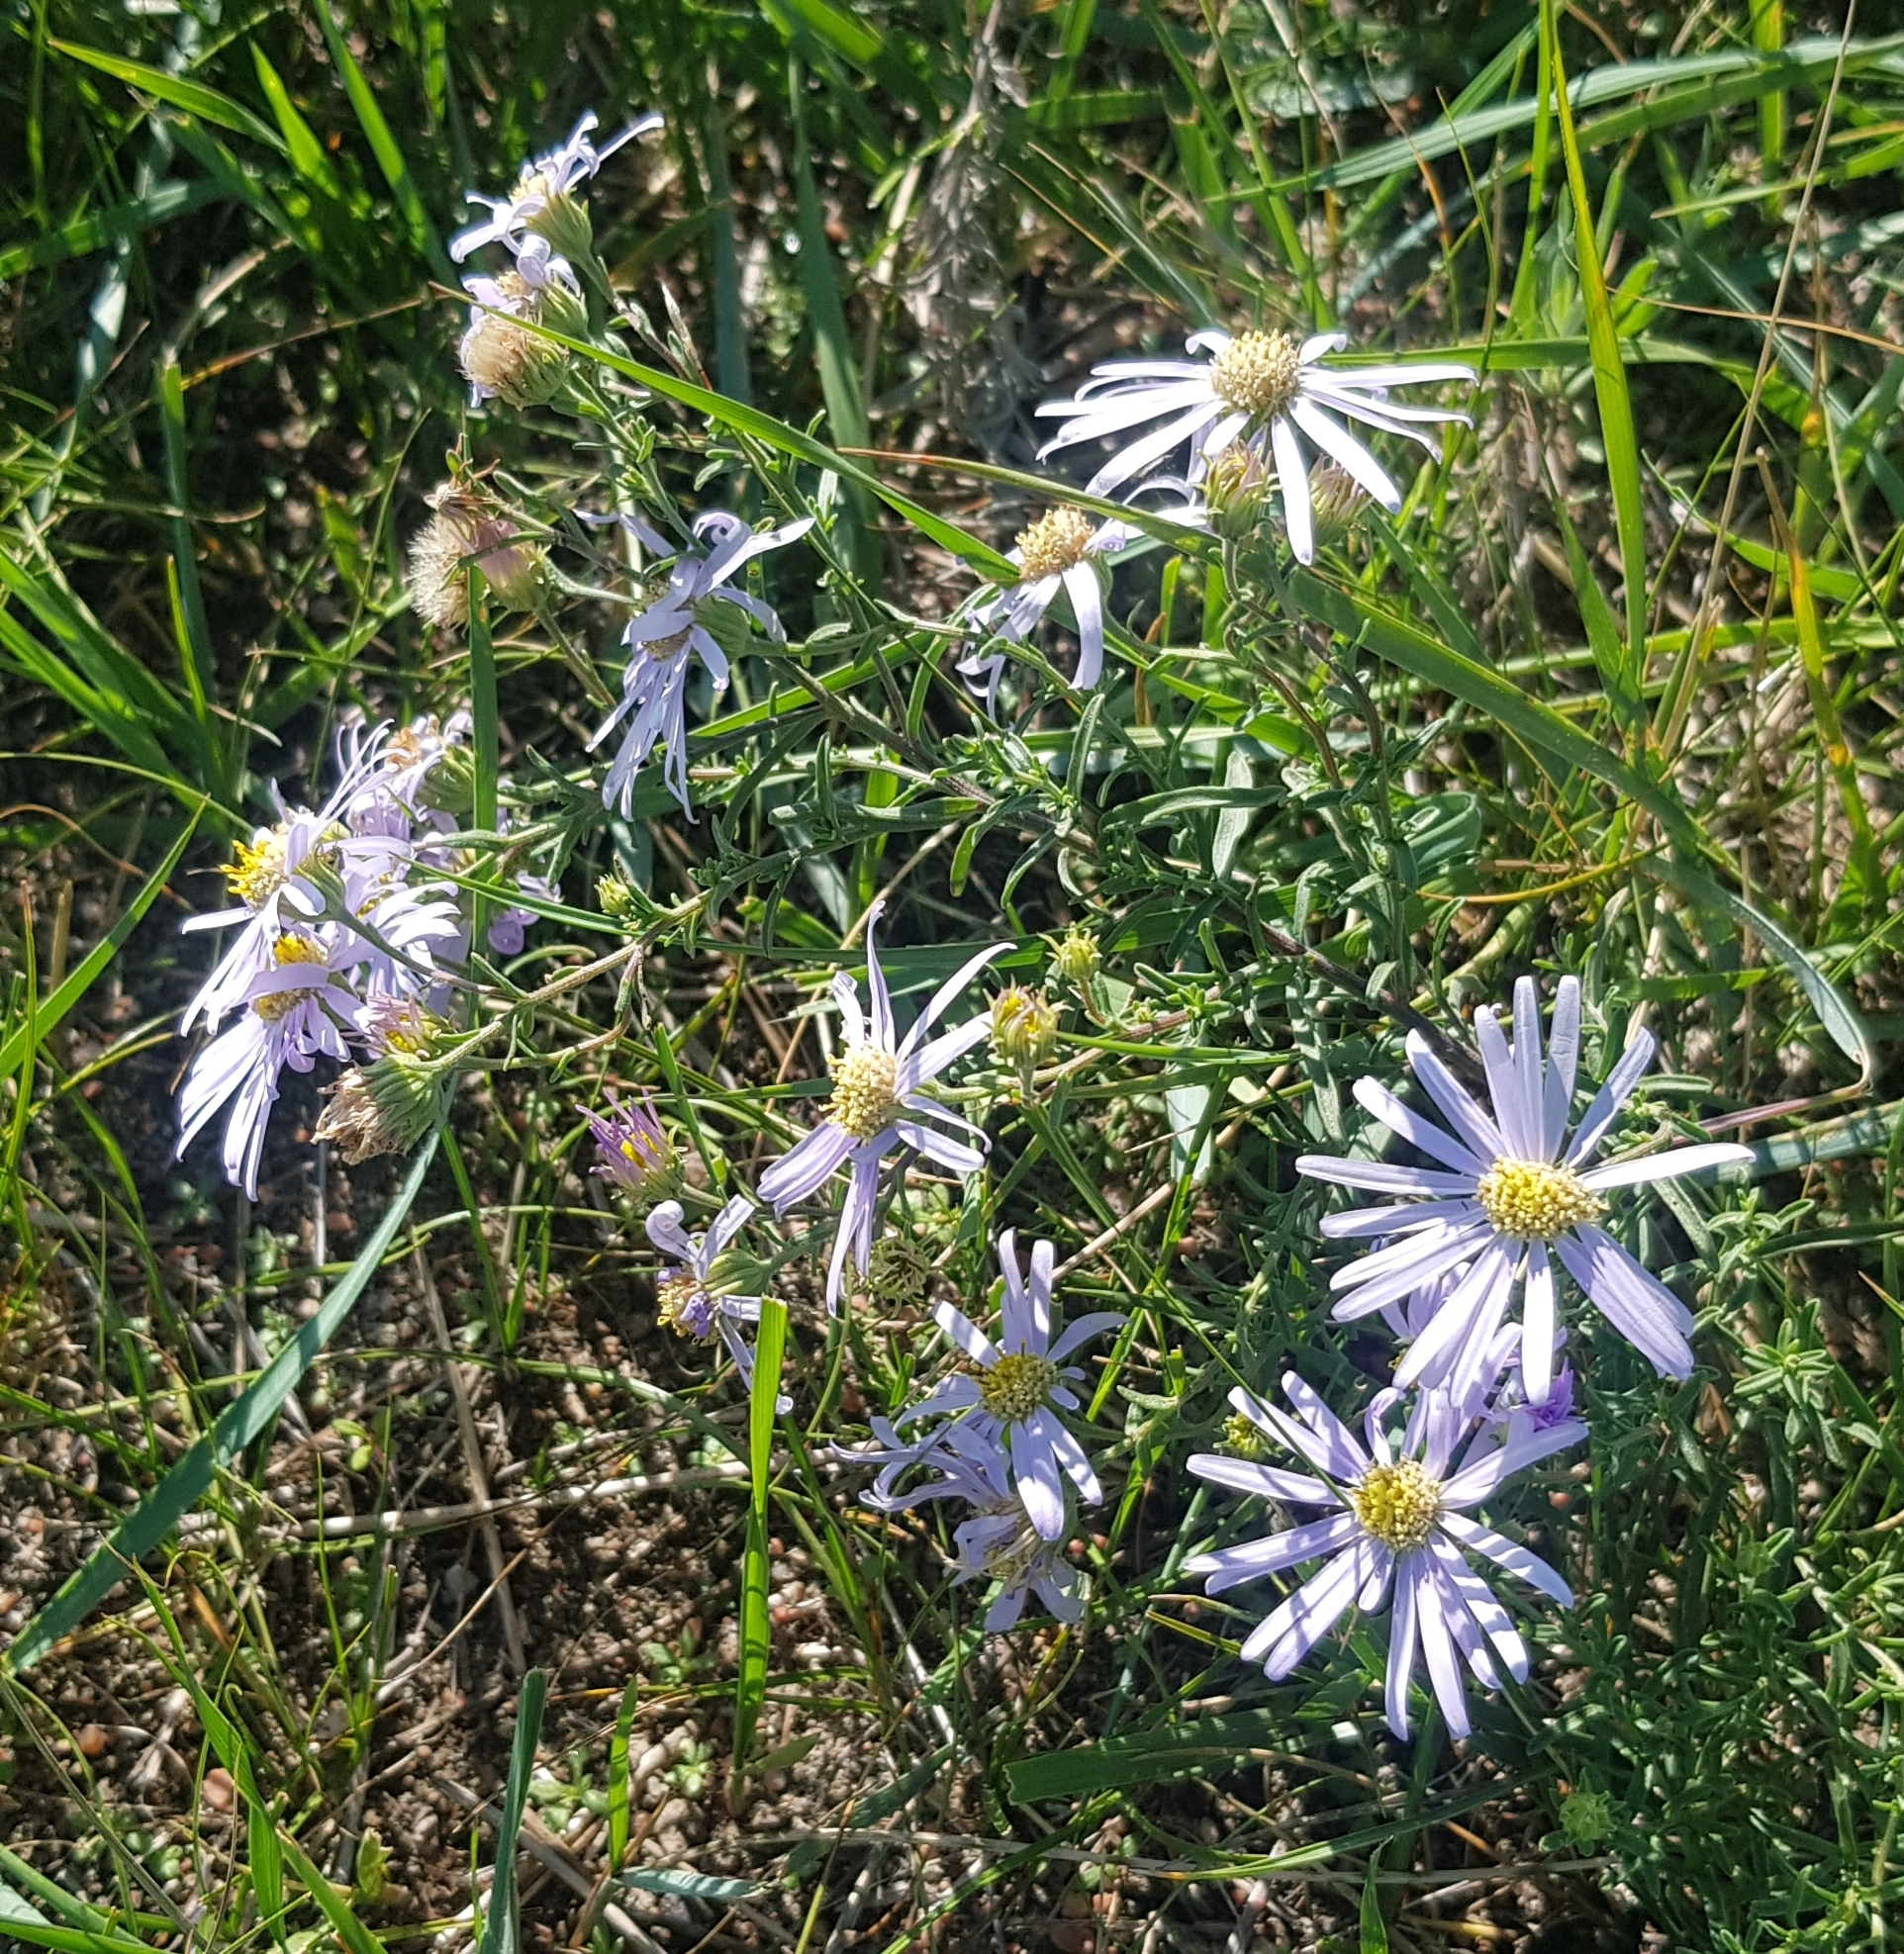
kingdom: Plantae
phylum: Tracheophyta
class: Magnoliopsida
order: Asterales
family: Asteraceae
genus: Heteropappus
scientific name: Heteropappus altaicus
